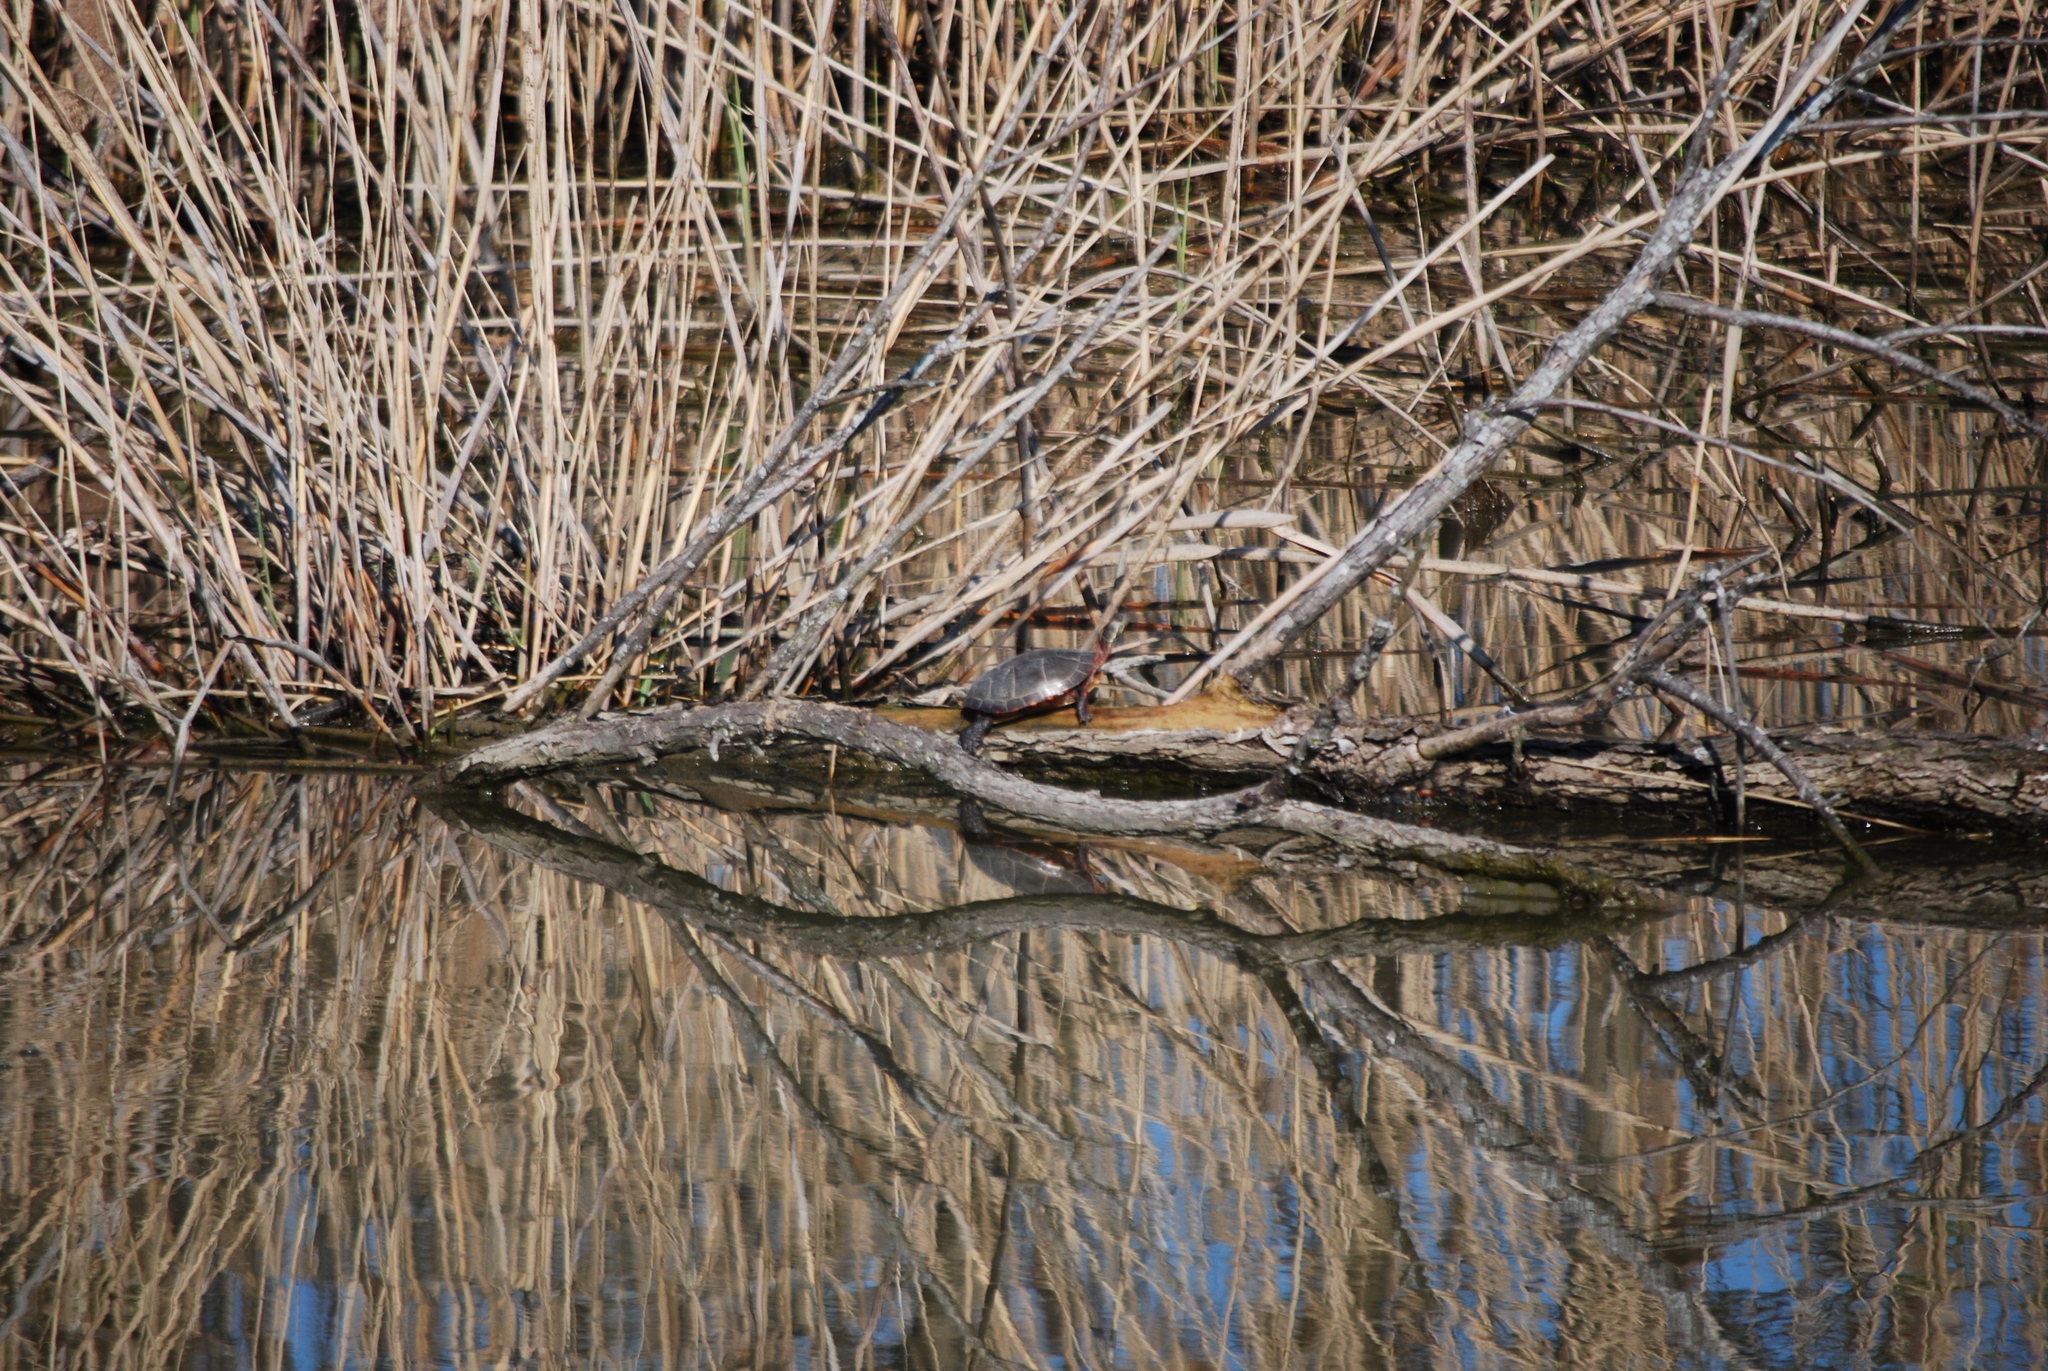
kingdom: Animalia
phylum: Chordata
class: Testudines
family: Emydidae
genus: Chrysemys
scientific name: Chrysemys picta
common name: Painted turtle
